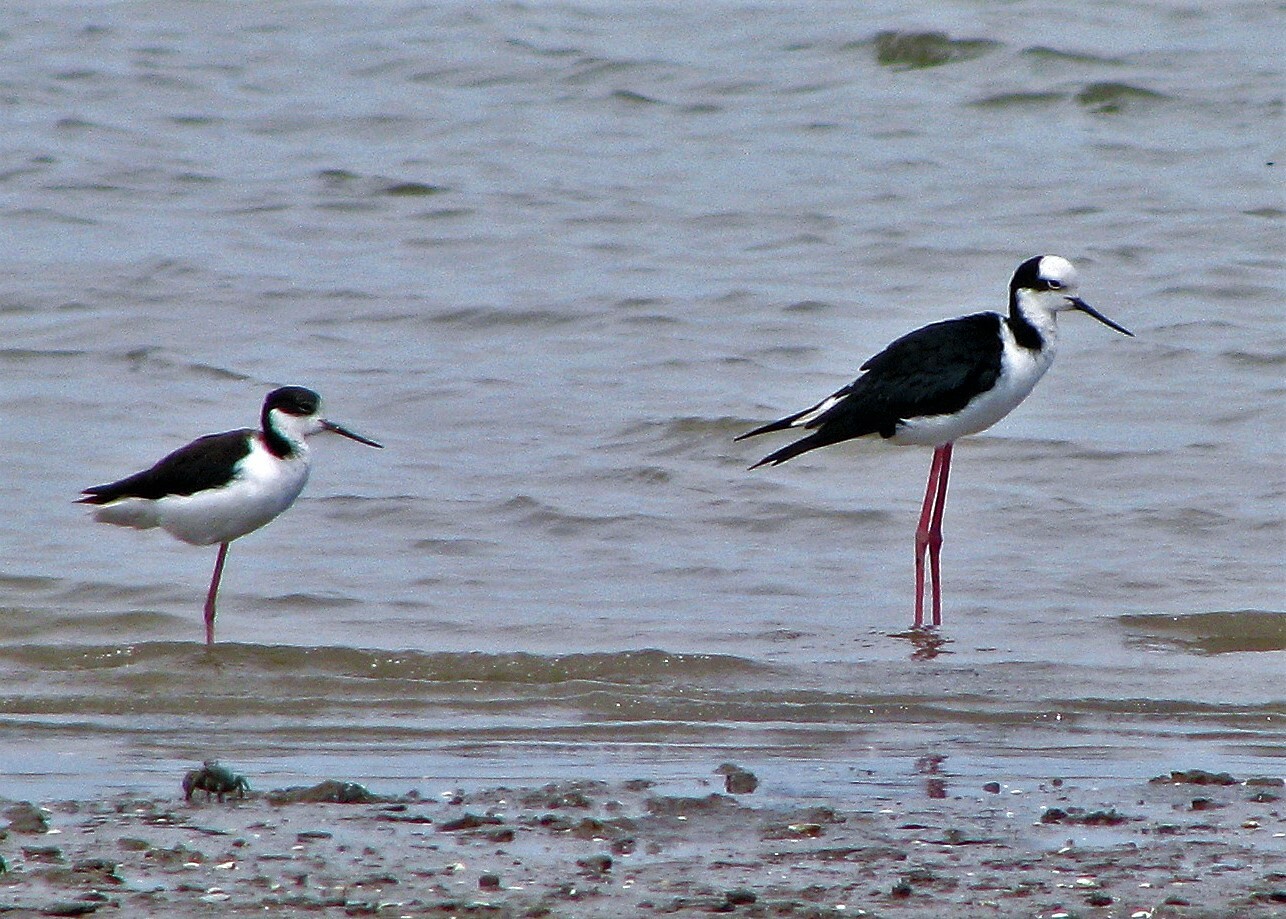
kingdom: Animalia
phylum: Chordata
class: Aves
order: Charadriiformes
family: Recurvirostridae
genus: Himantopus
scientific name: Himantopus mexicanus
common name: Black-necked stilt
